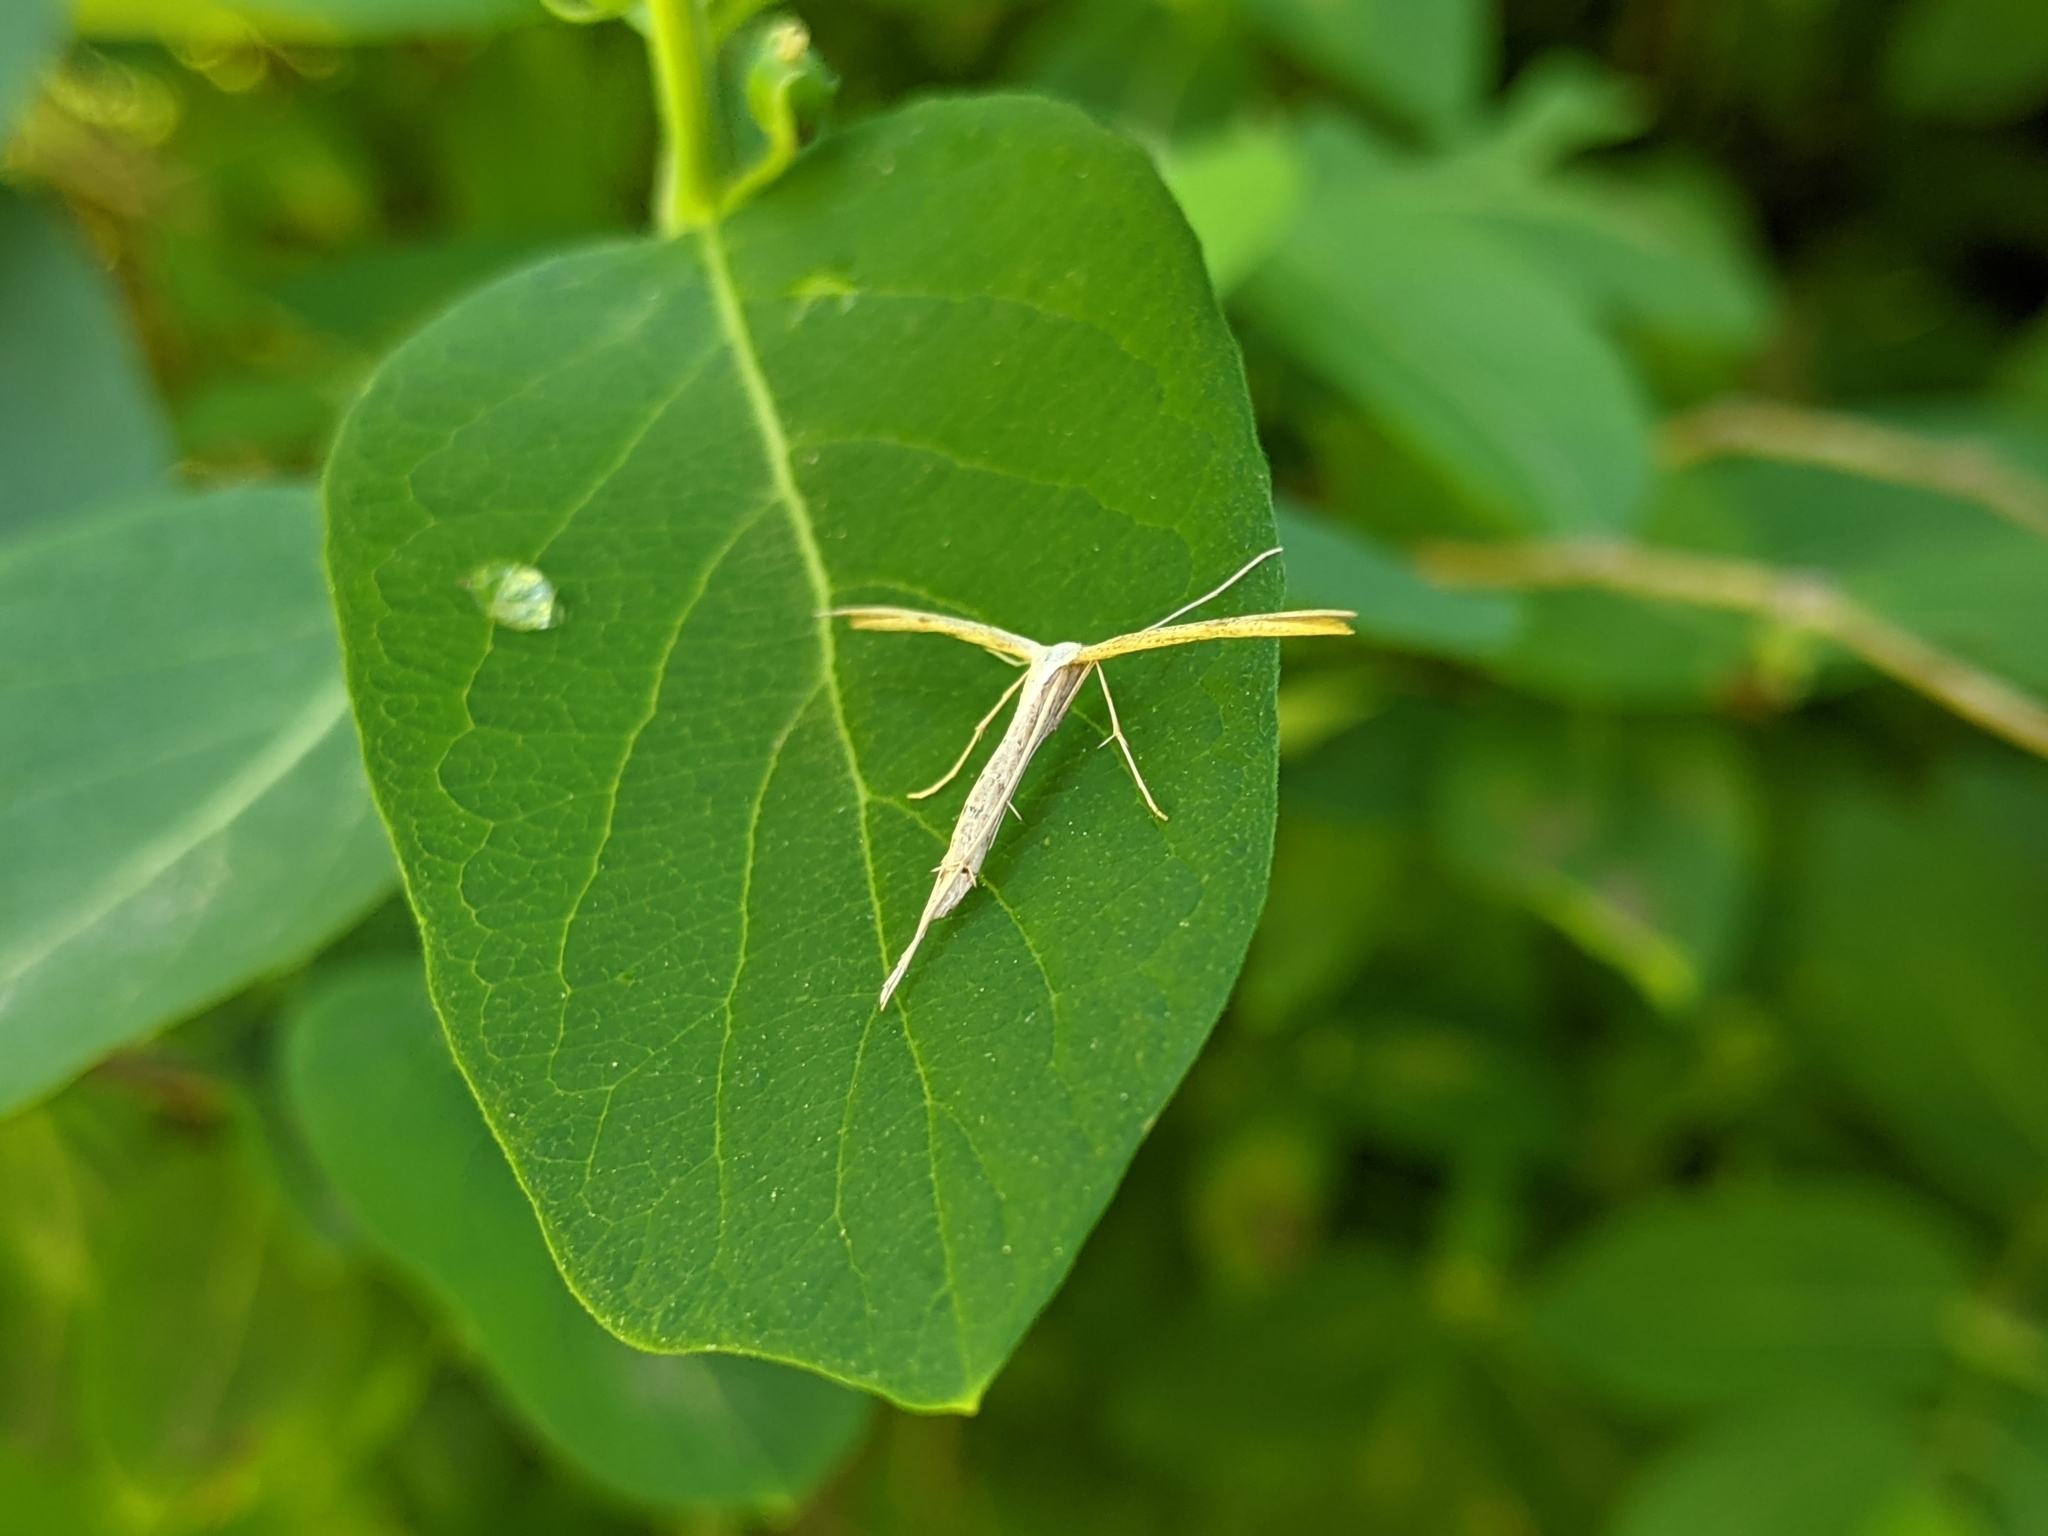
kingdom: Animalia
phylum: Arthropoda
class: Insecta
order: Lepidoptera
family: Pterophoridae
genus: Emmelina
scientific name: Emmelina monodactyla
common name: Common plume
